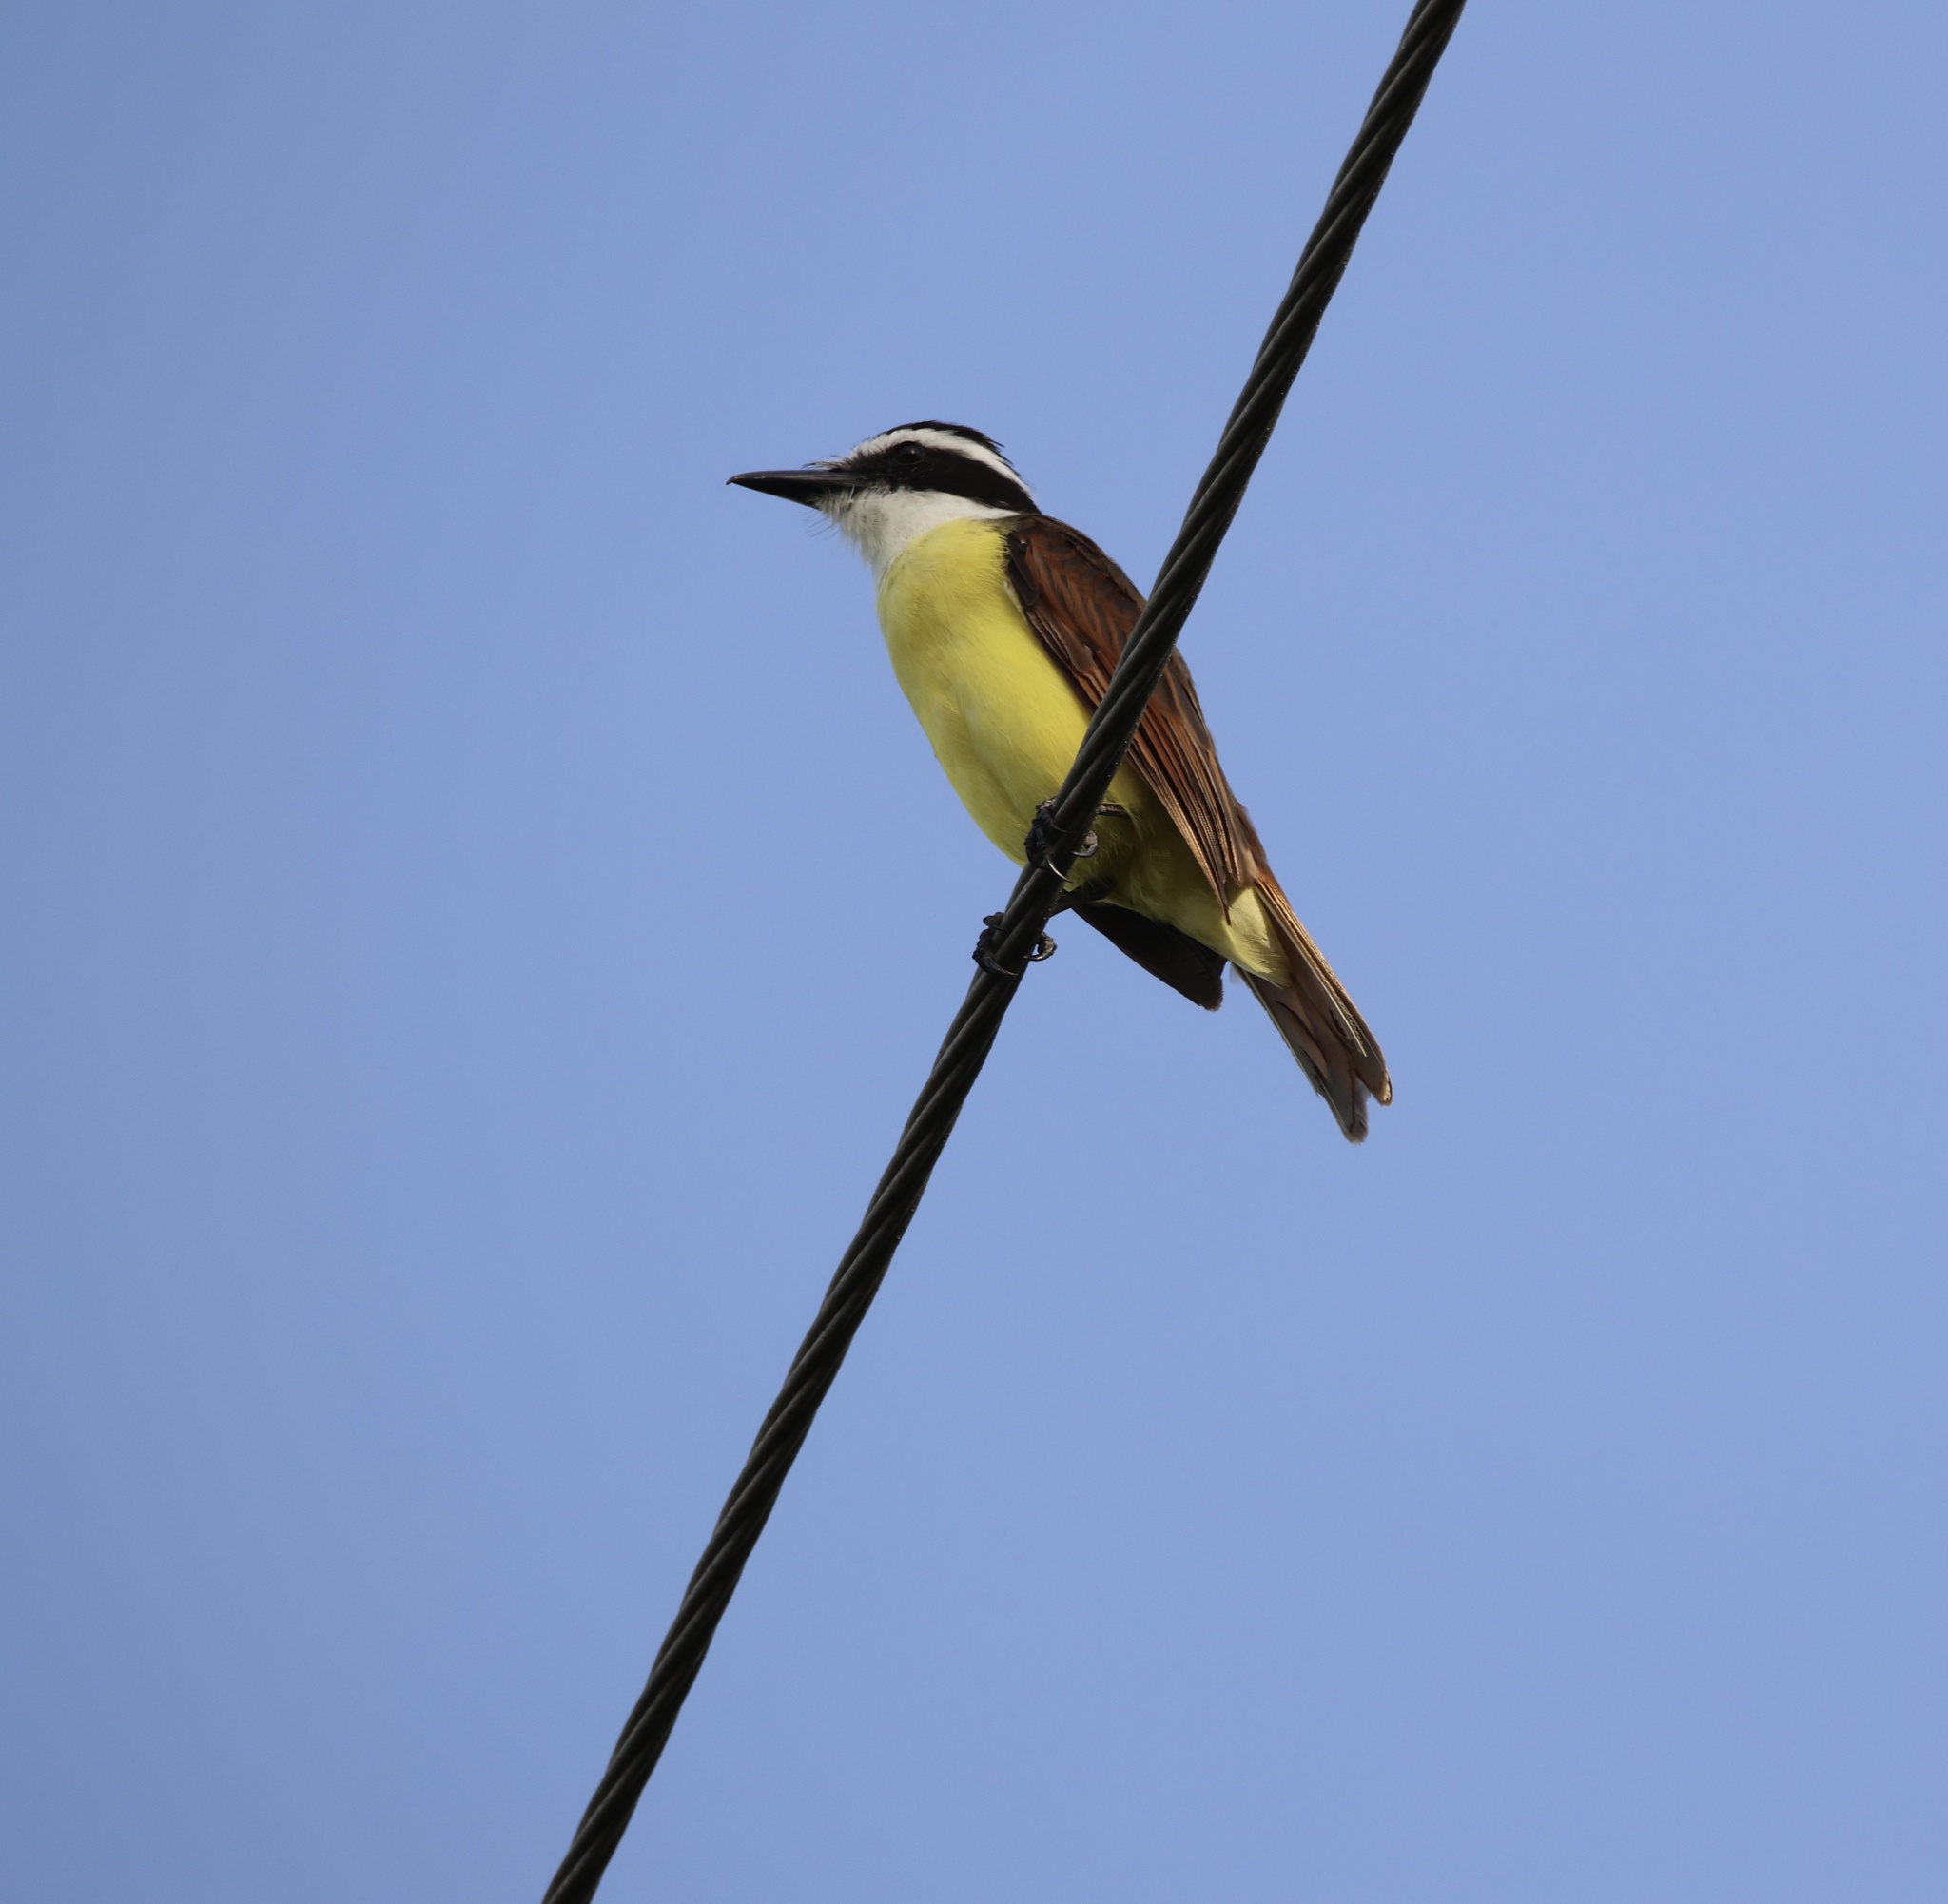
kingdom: Animalia
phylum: Chordata
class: Aves
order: Passeriformes
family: Tyrannidae
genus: Pitangus
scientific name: Pitangus sulphuratus
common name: Great kiskadee
